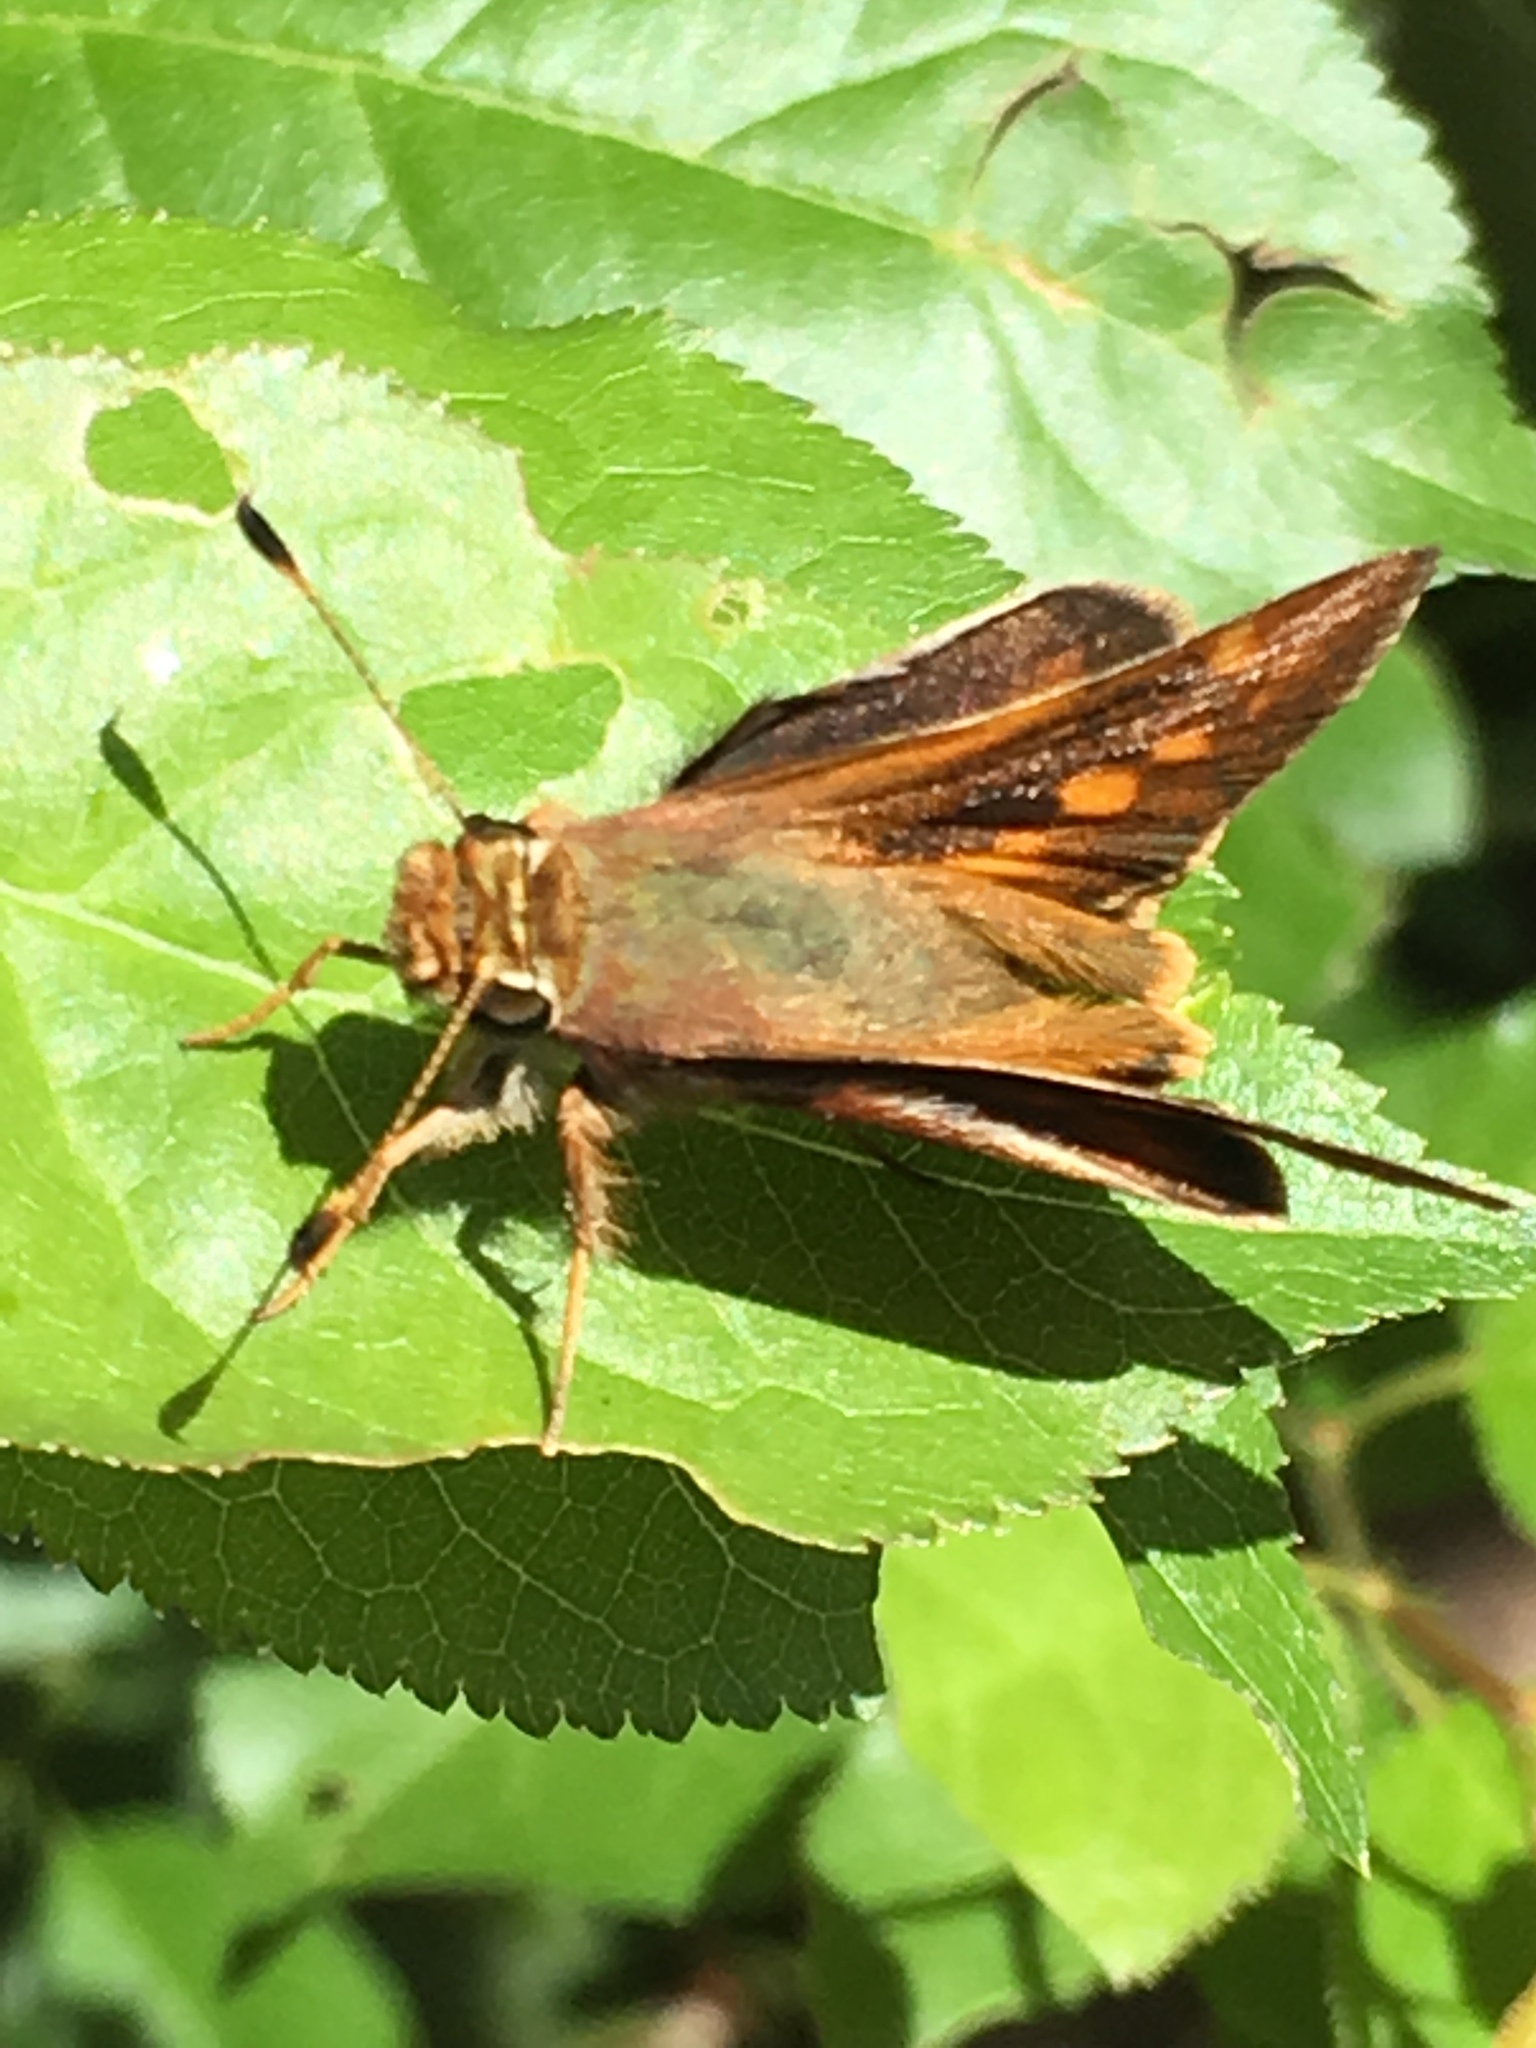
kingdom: Animalia
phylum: Arthropoda
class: Insecta
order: Lepidoptera
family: Hesperiidae
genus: Lon
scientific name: Lon melane
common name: Umber skipper
